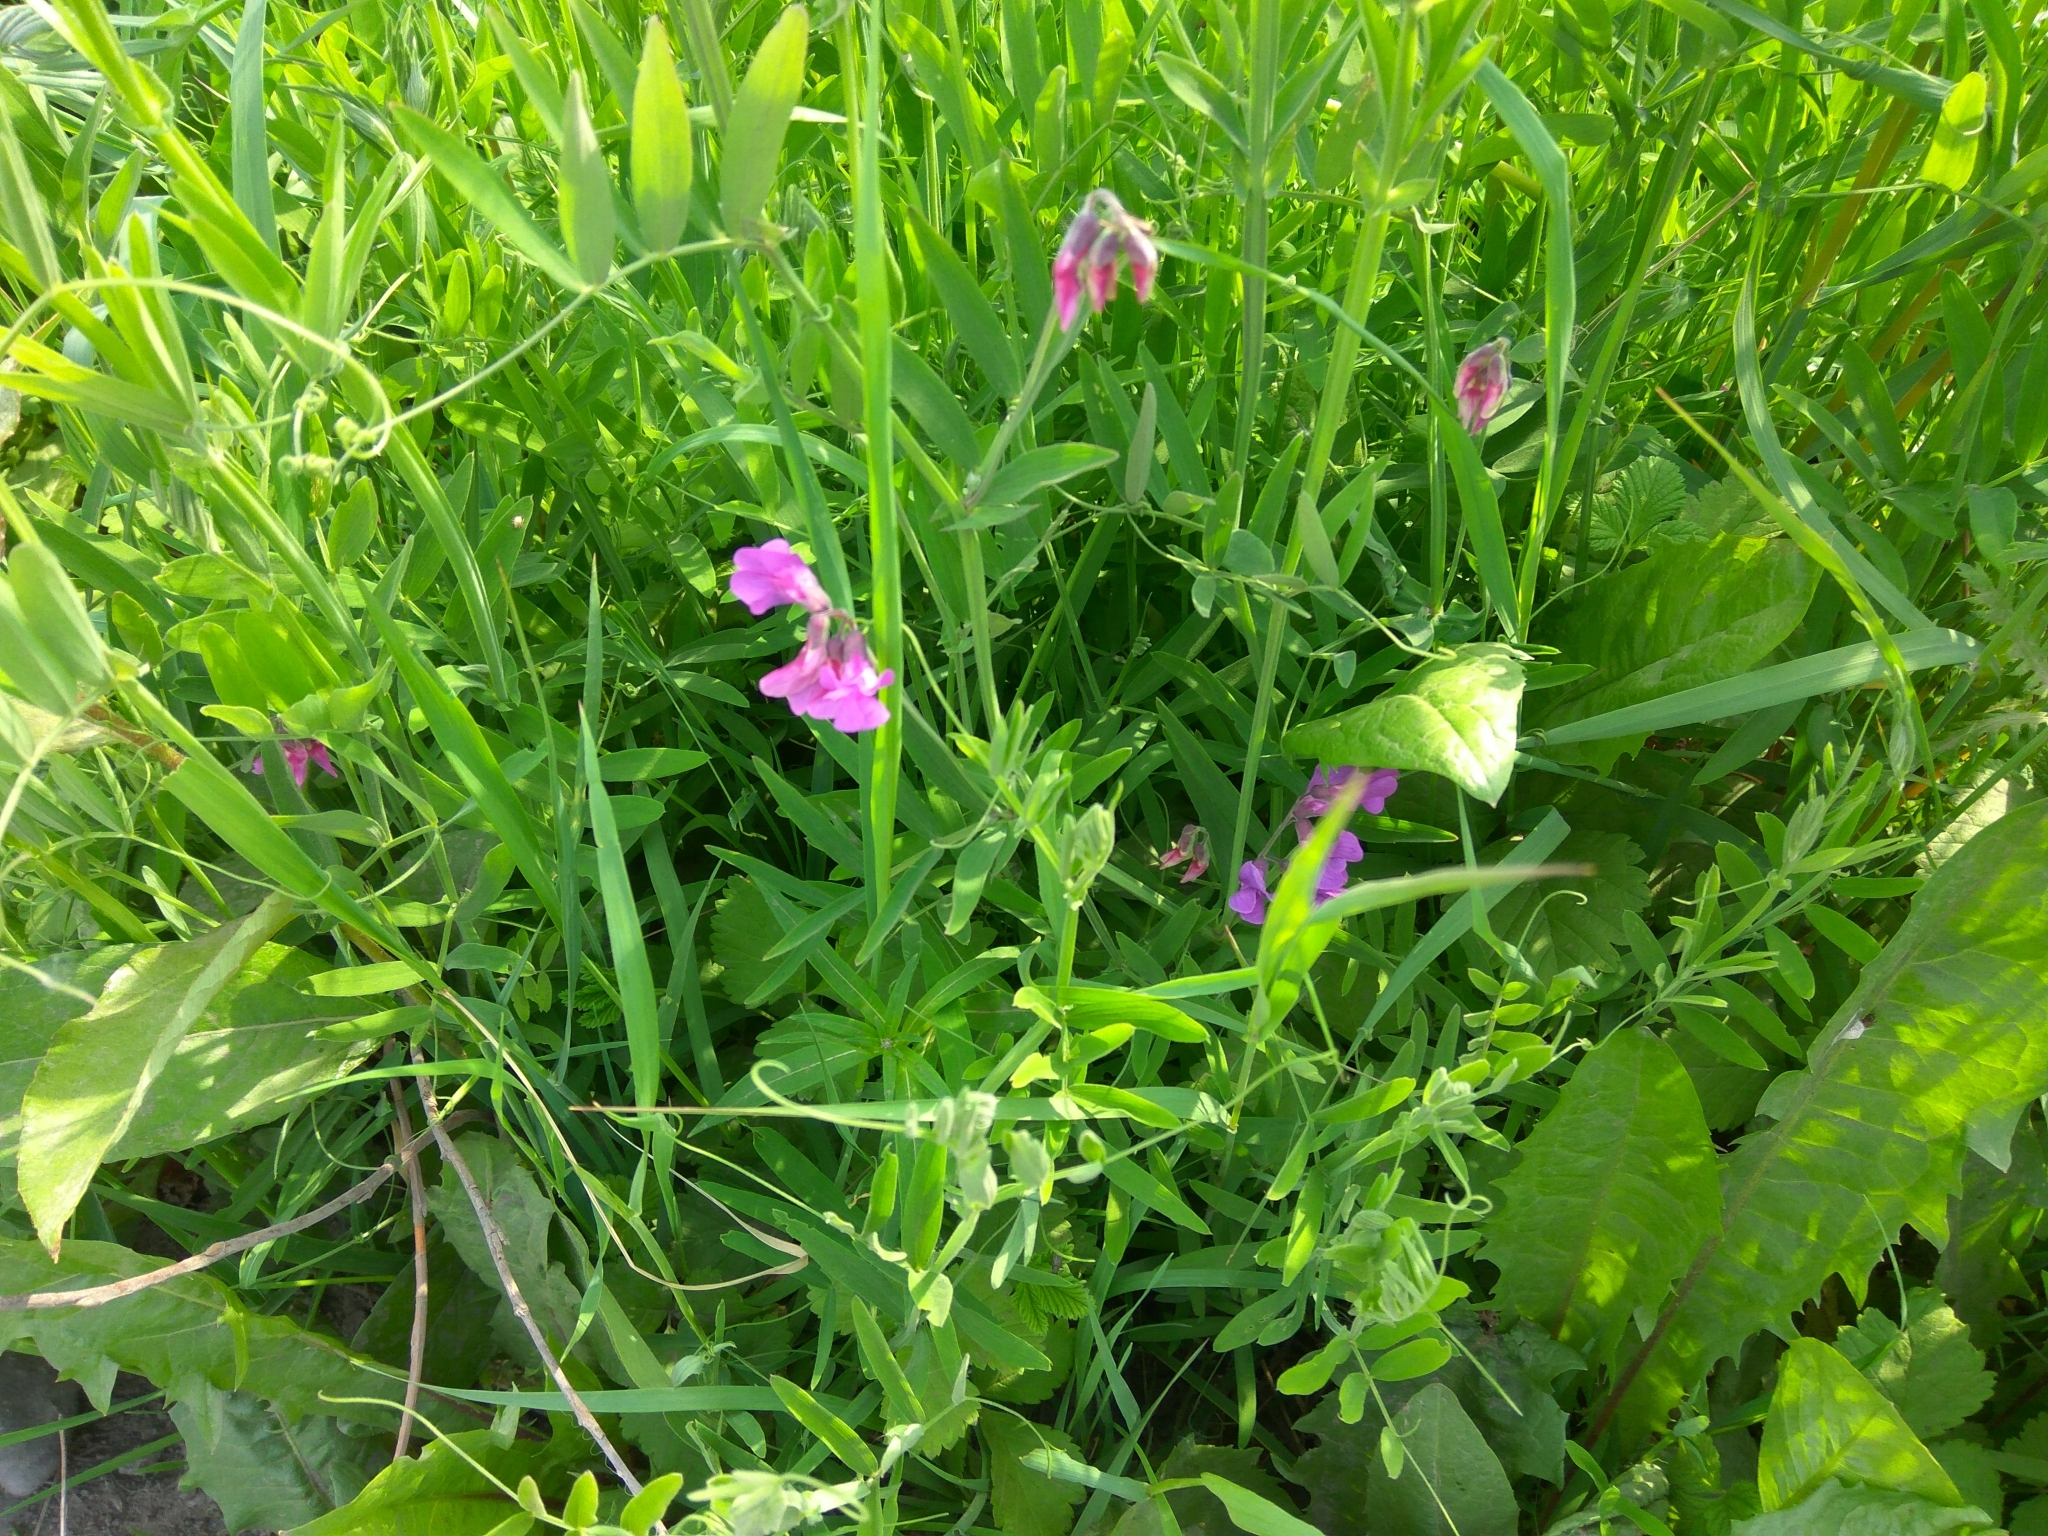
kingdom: Plantae
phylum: Tracheophyta
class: Magnoliopsida
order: Fabales
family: Fabaceae
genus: Lathyrus
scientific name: Lathyrus palustris
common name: Marsh pea
